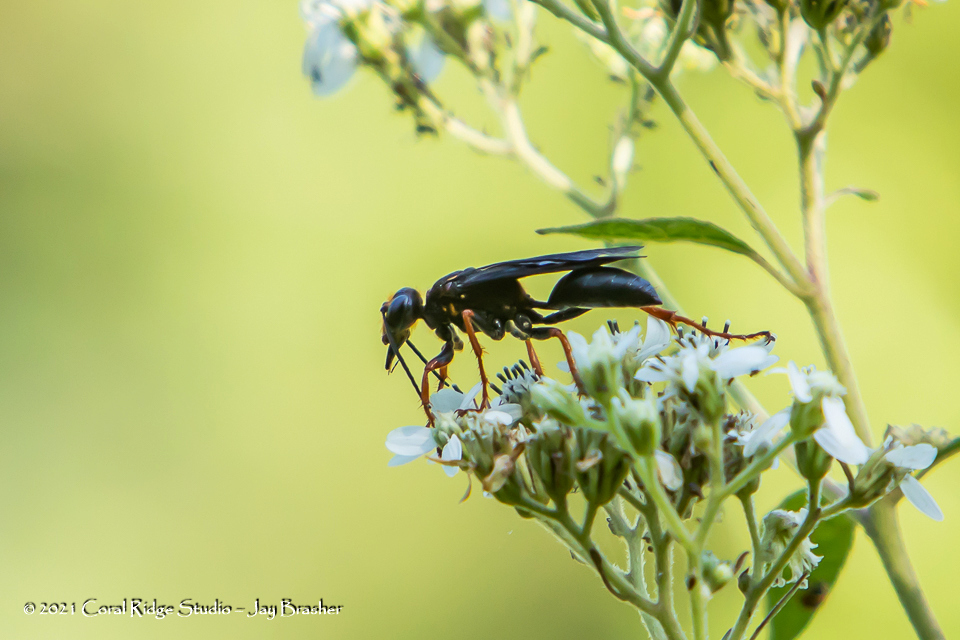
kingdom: Animalia
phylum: Arthropoda
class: Insecta
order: Hymenoptera
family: Sphecidae
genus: Sphex
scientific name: Sphex flavovestitus
